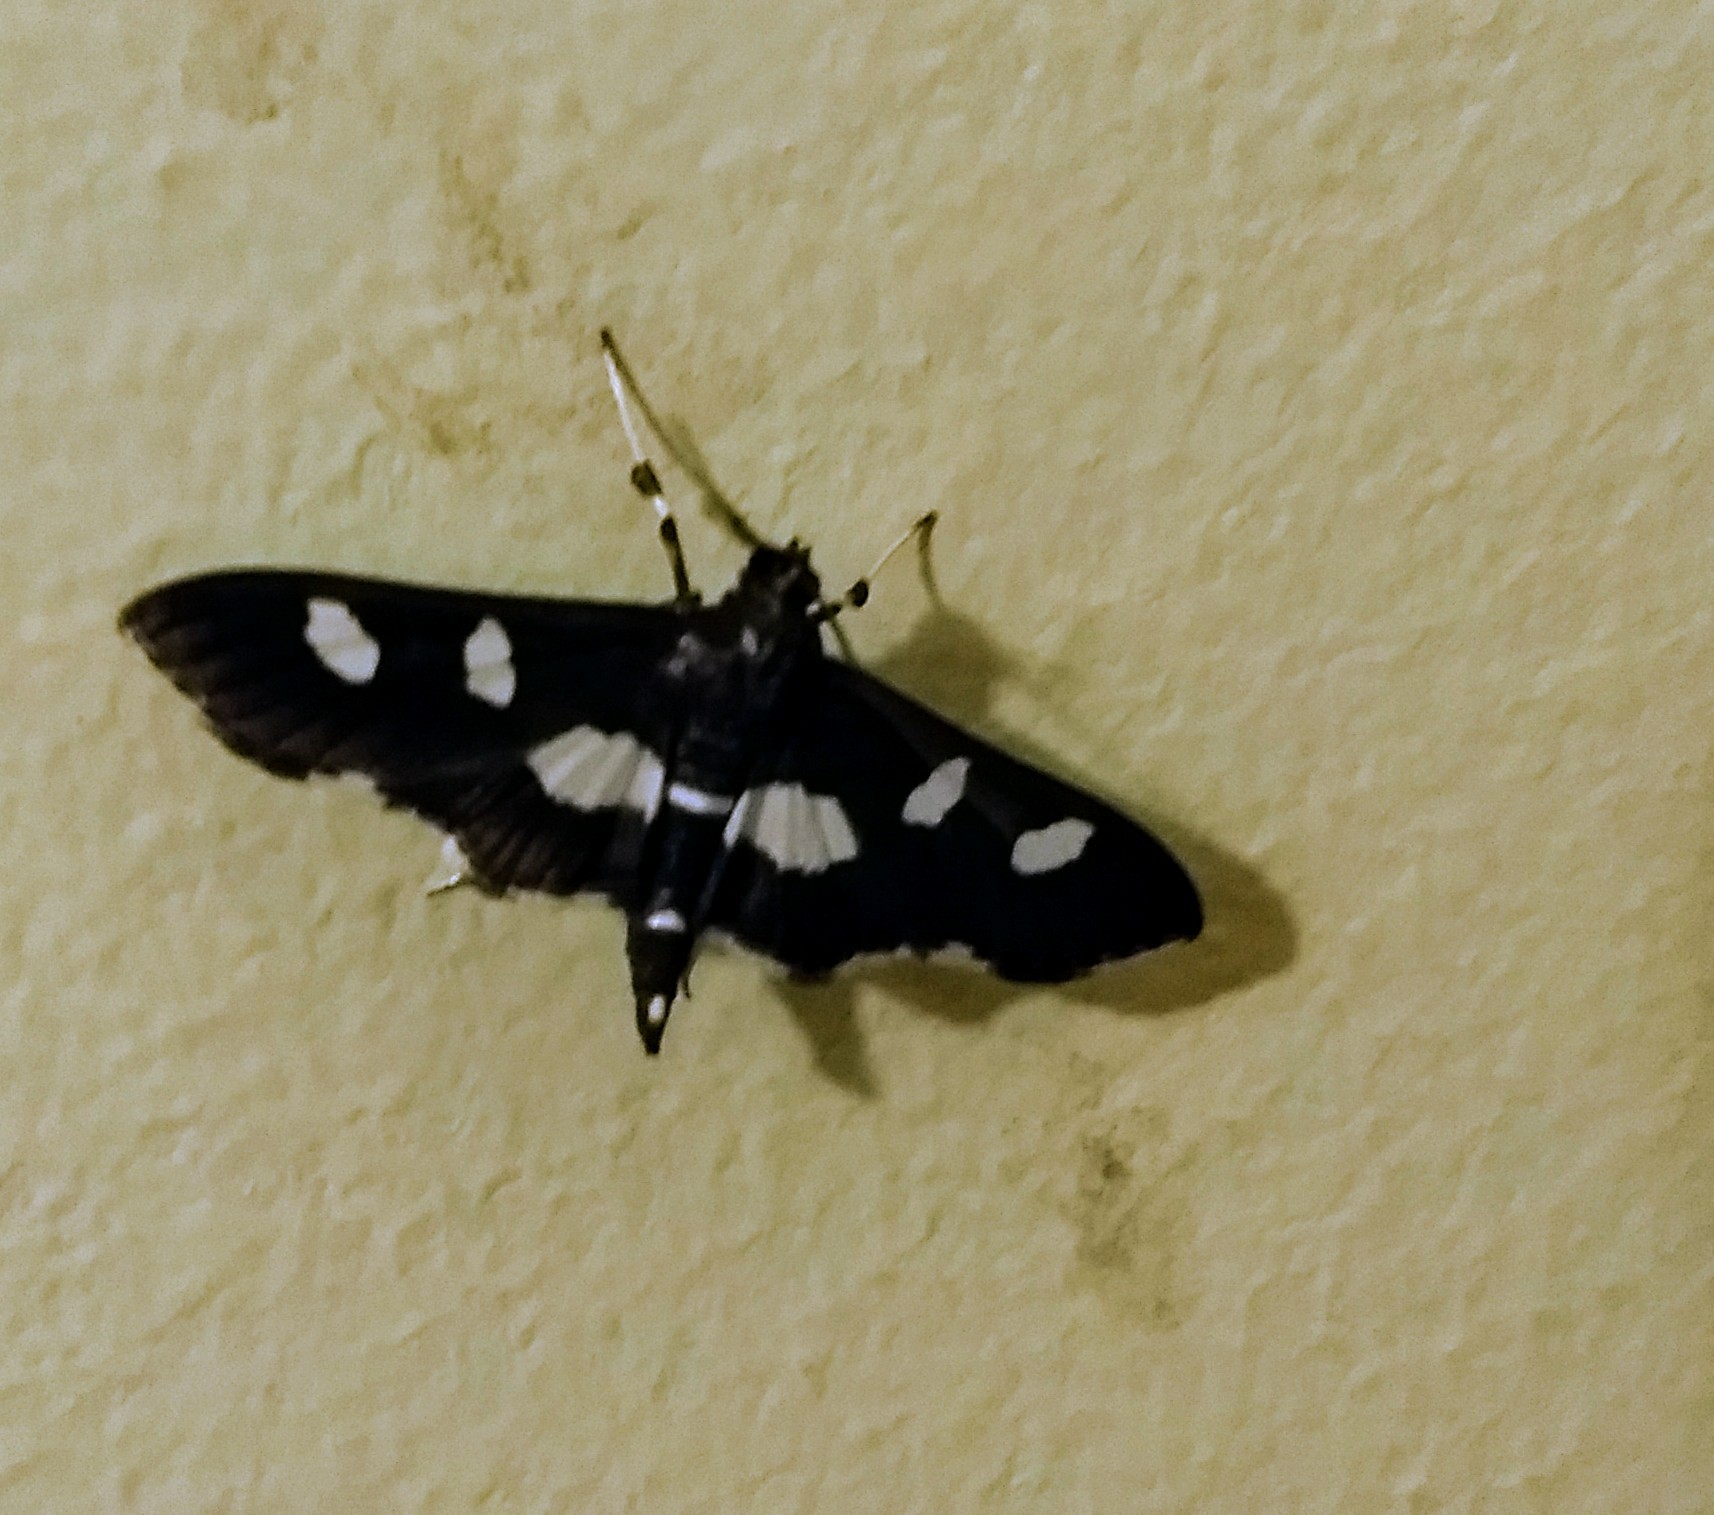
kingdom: Animalia
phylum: Arthropoda
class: Insecta
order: Lepidoptera
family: Crambidae
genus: Desmia
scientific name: Desmia
